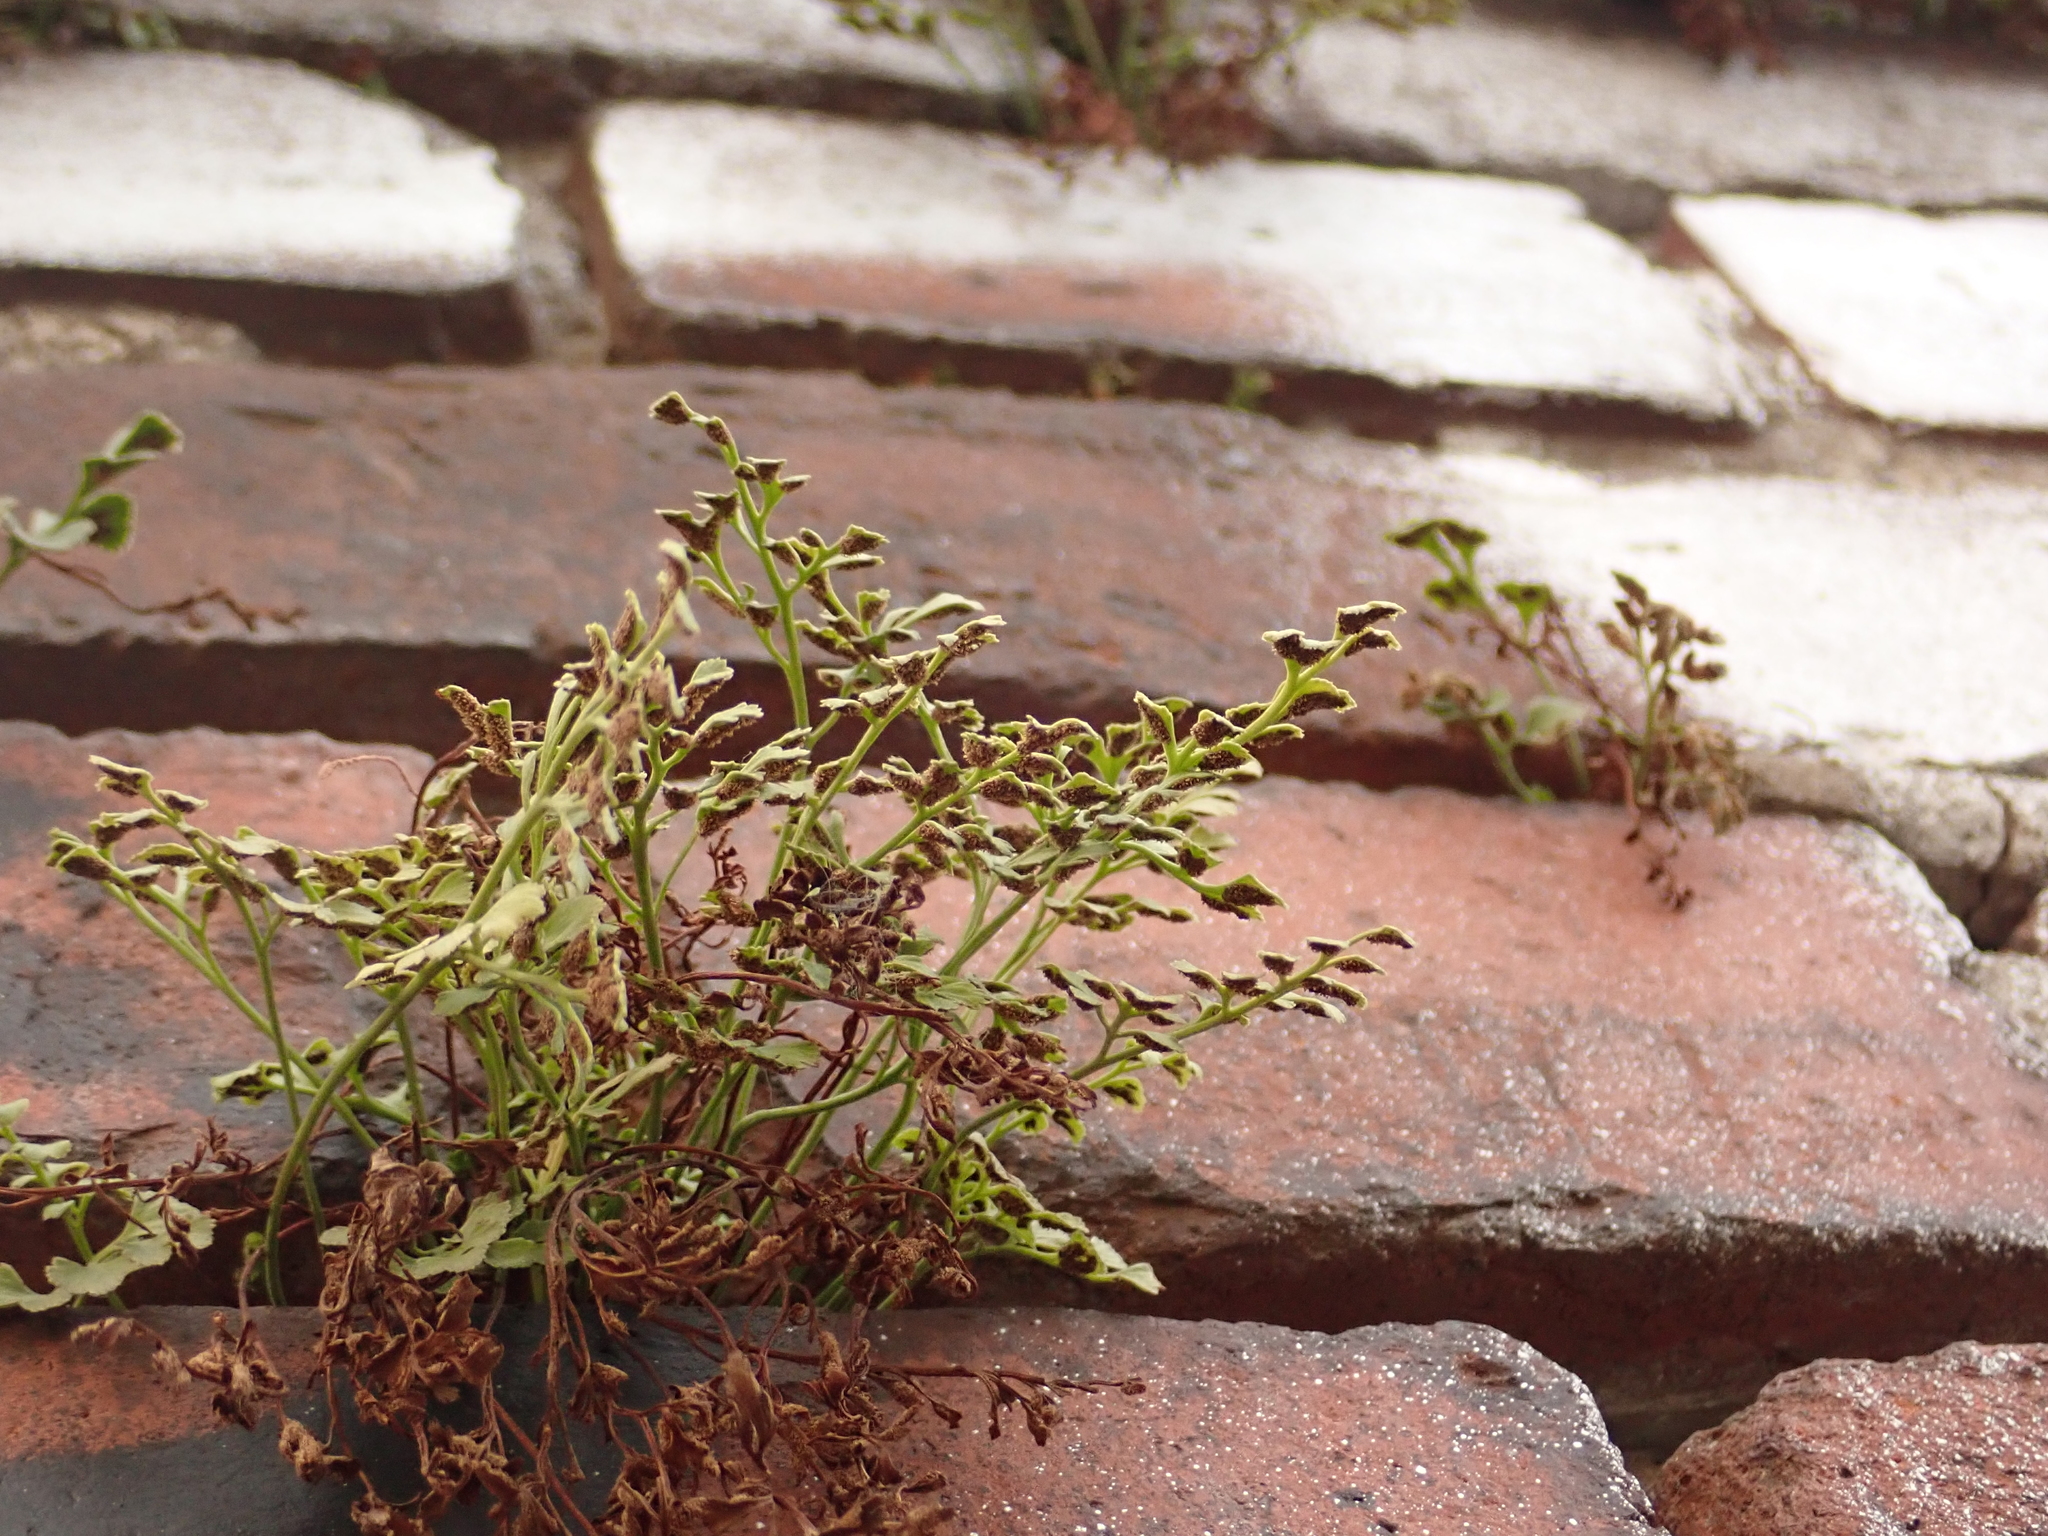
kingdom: Plantae
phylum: Tracheophyta
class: Polypodiopsida
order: Polypodiales
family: Aspleniaceae
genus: Asplenium
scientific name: Asplenium ruta-muraria
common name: Wall-rue
